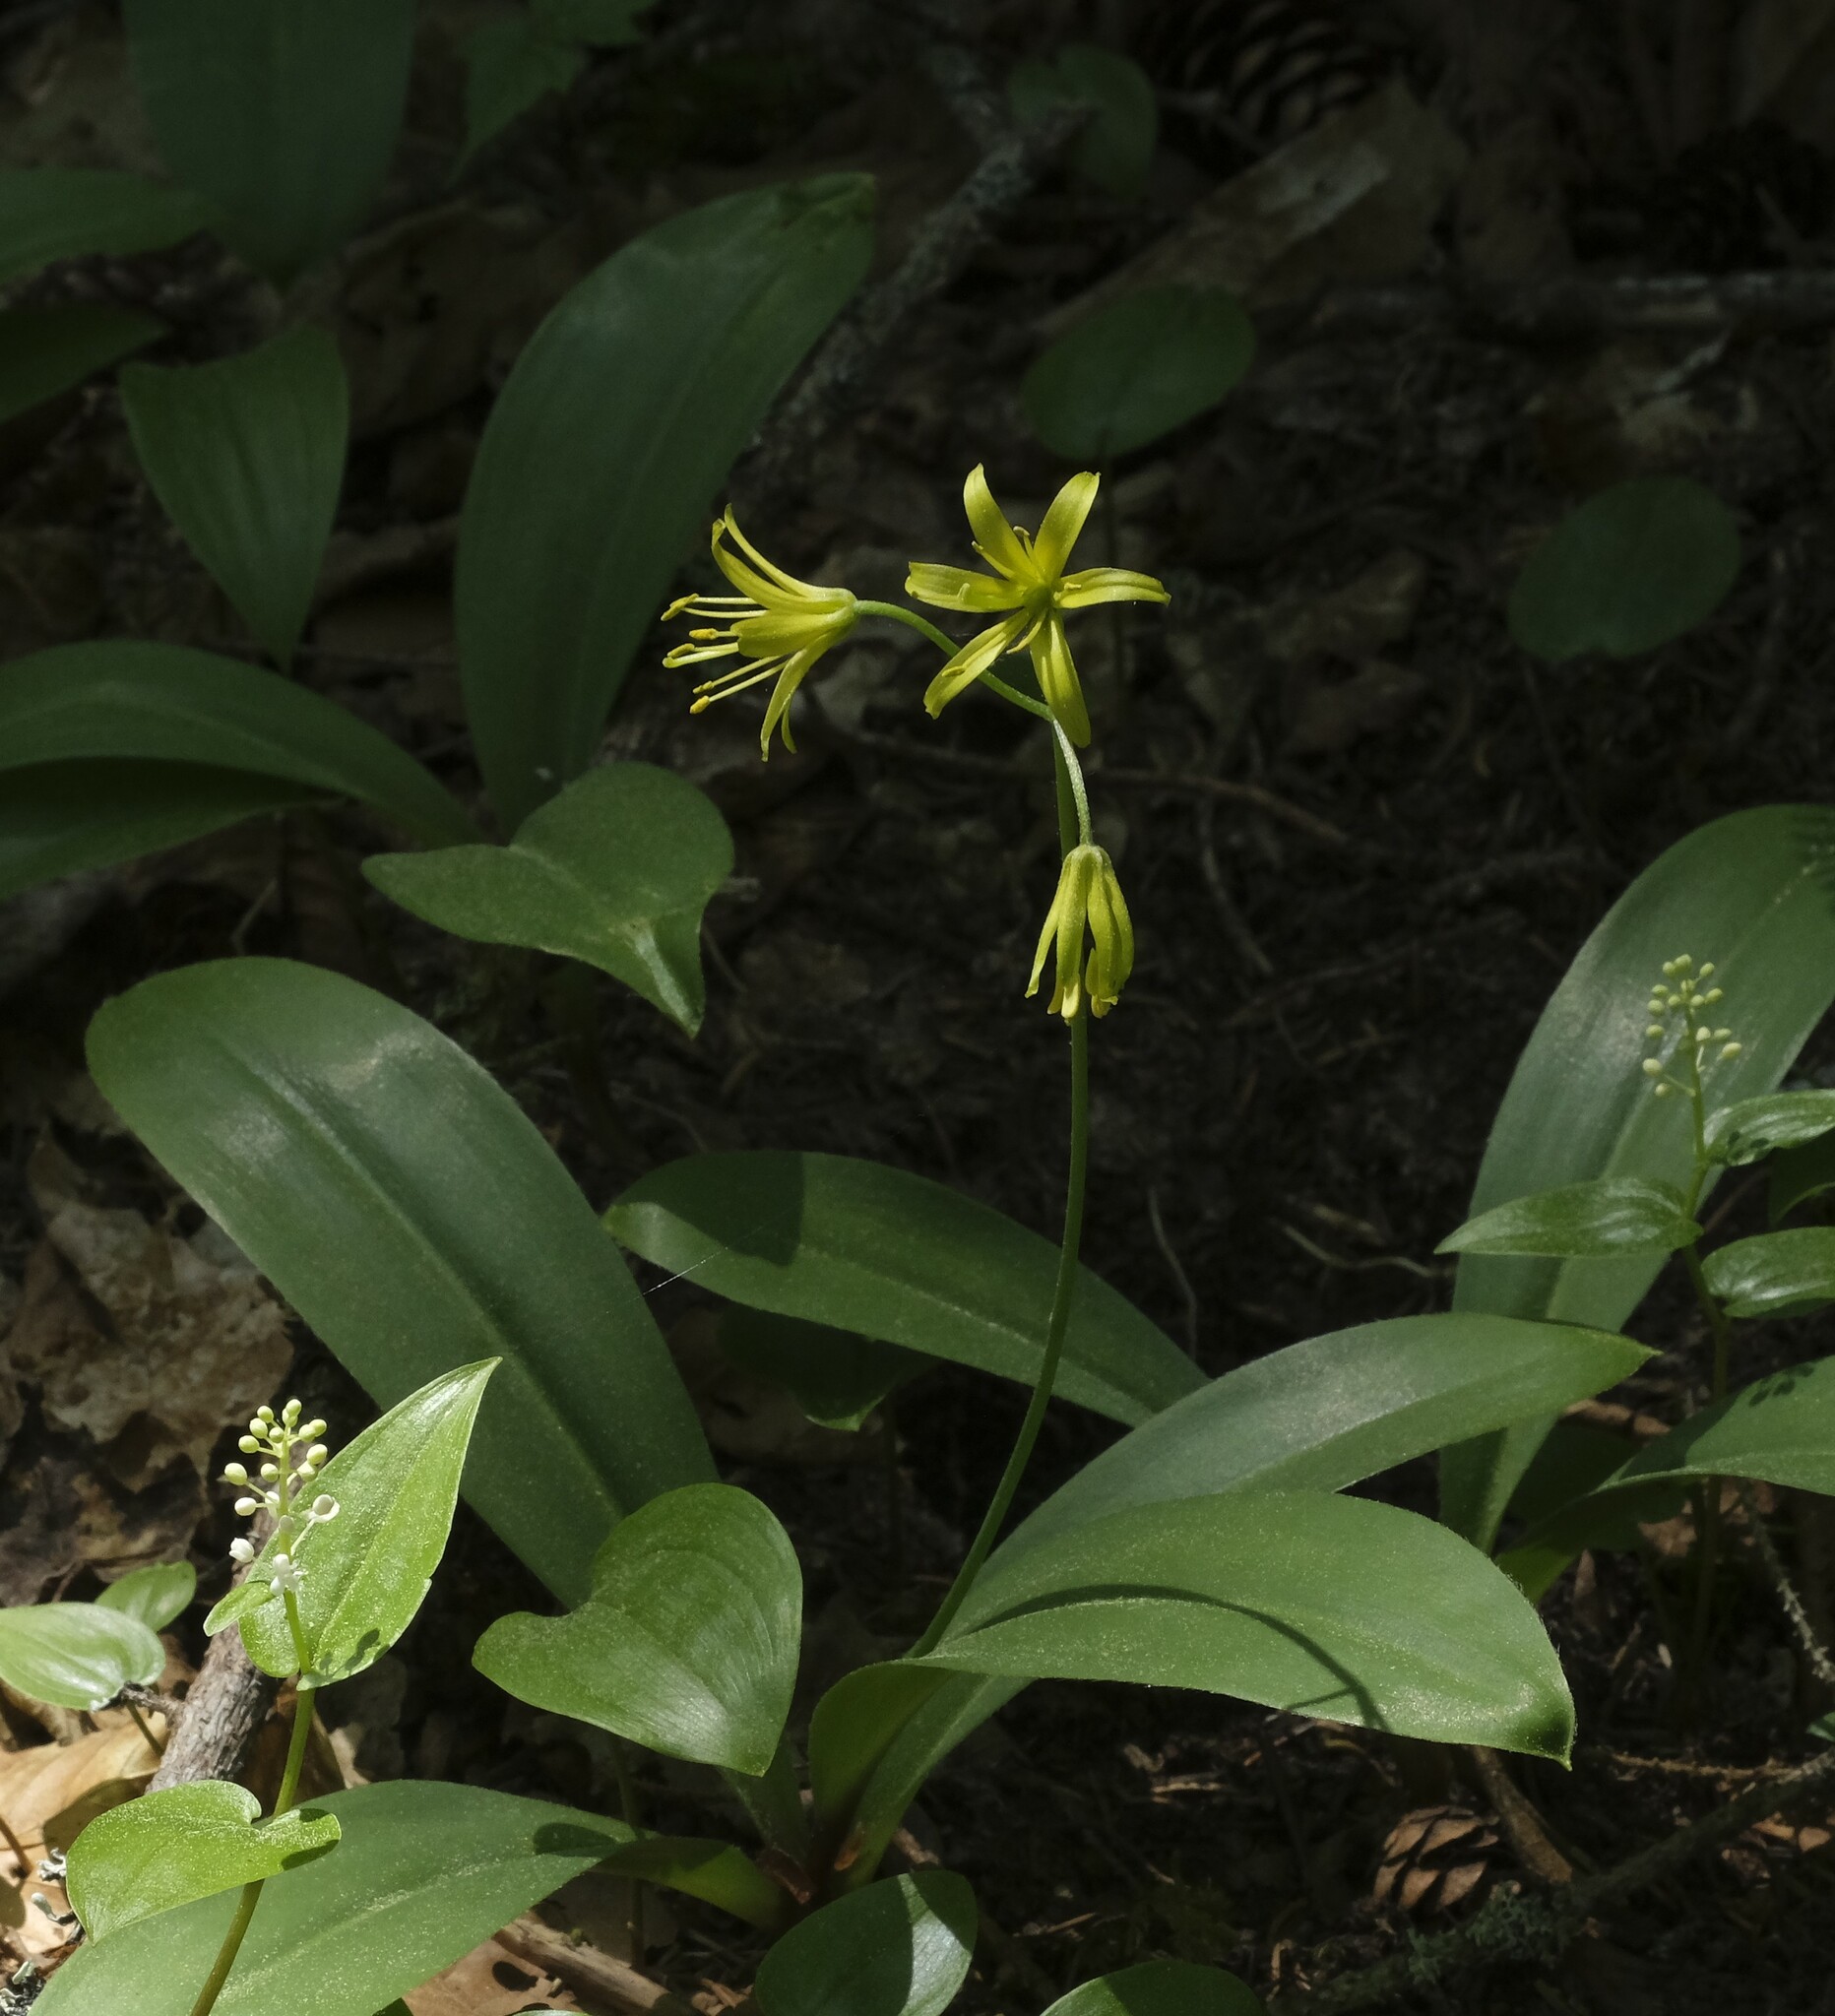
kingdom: Plantae
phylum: Tracheophyta
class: Liliopsida
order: Liliales
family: Liliaceae
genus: Clintonia
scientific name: Clintonia borealis
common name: Yellow clintonia
